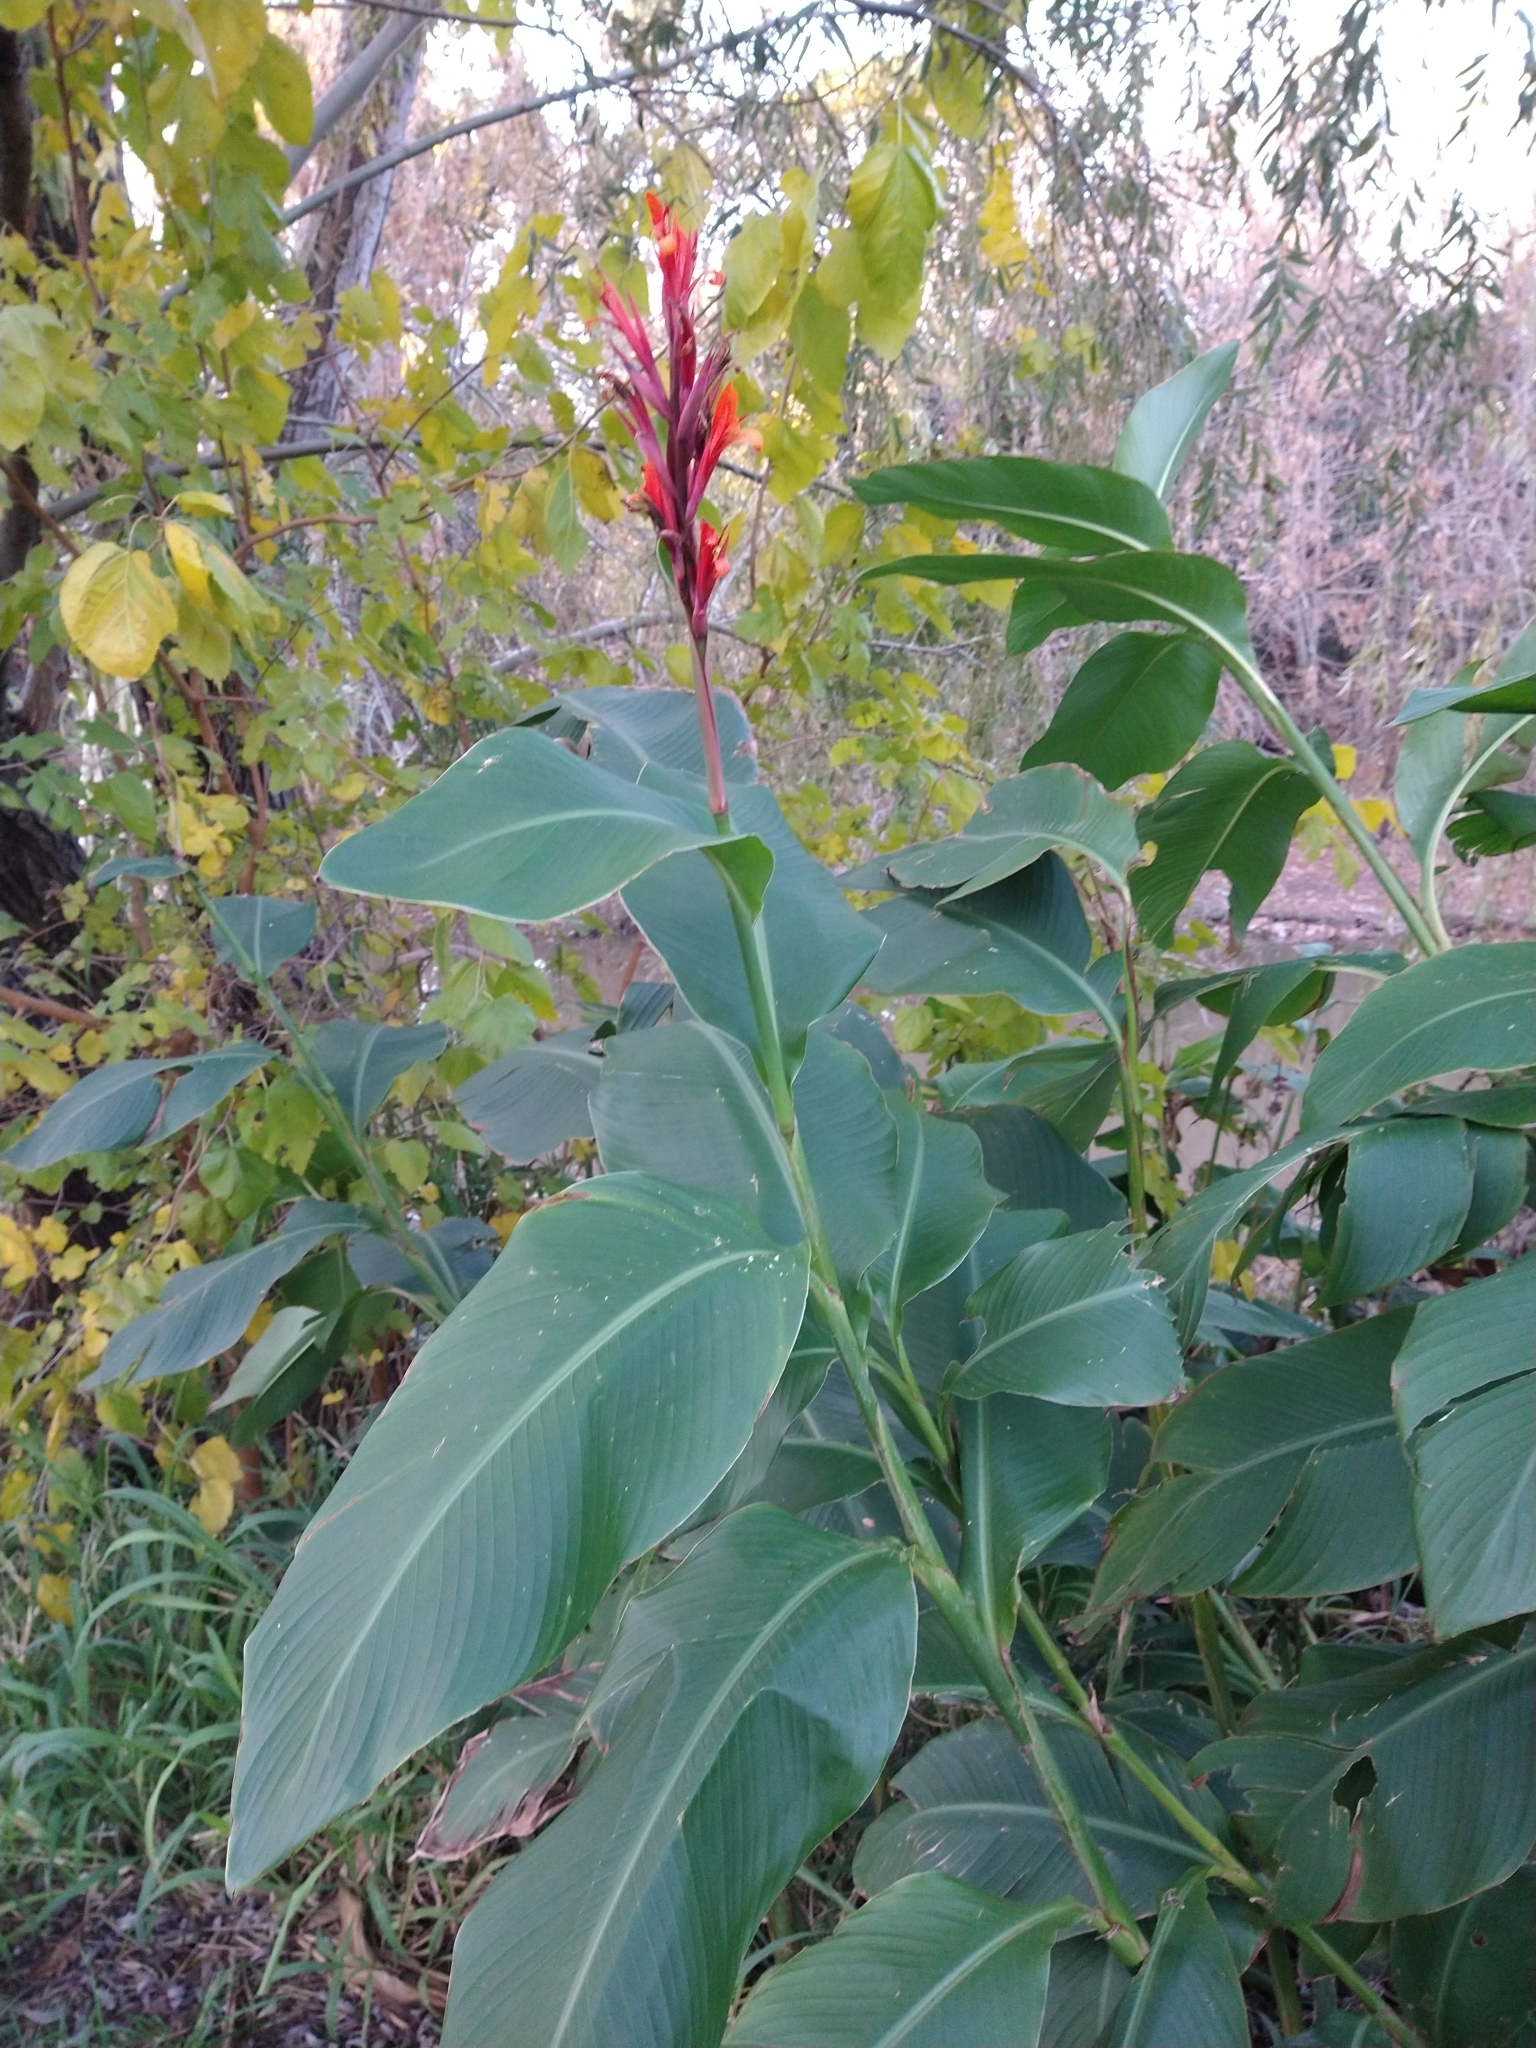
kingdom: Plantae
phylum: Tracheophyta
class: Liliopsida
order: Zingiberales
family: Cannaceae
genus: Canna
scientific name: Canna indica
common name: Indian shot
